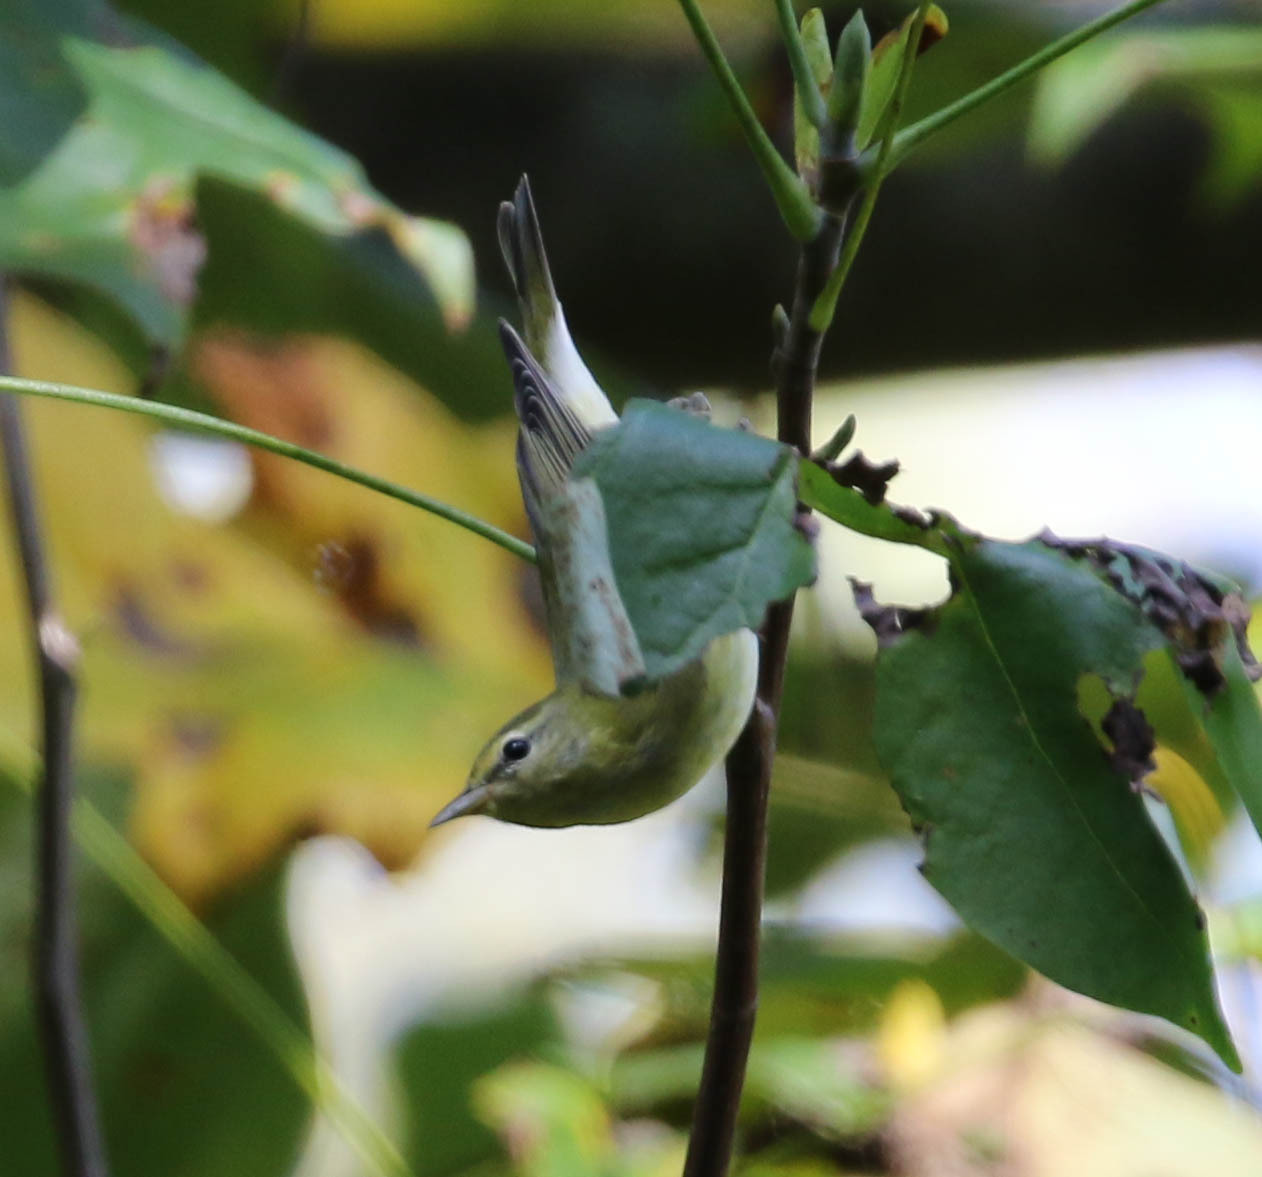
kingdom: Animalia
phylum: Chordata
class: Aves
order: Passeriformes
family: Parulidae
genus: Leiothlypis
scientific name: Leiothlypis peregrina
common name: Tennessee warbler
